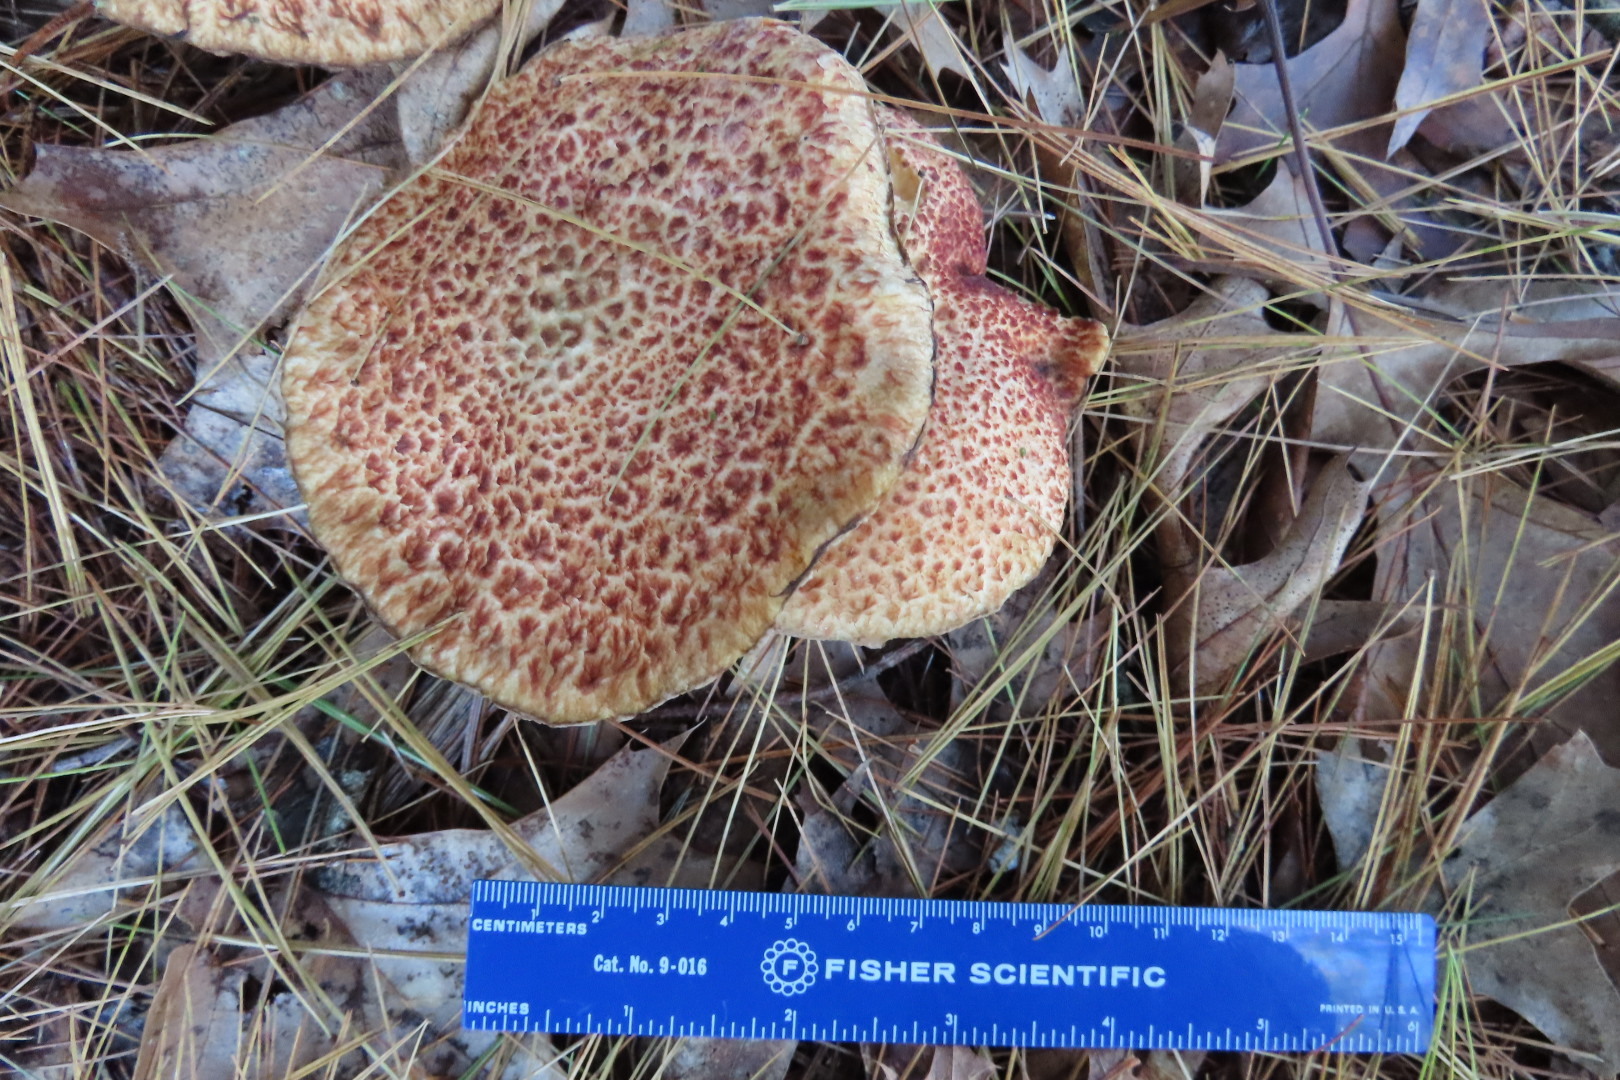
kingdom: Fungi
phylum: Basidiomycota
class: Agaricomycetes
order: Boletales
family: Suillaceae
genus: Suillus
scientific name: Suillus spraguei
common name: Painted suillus
